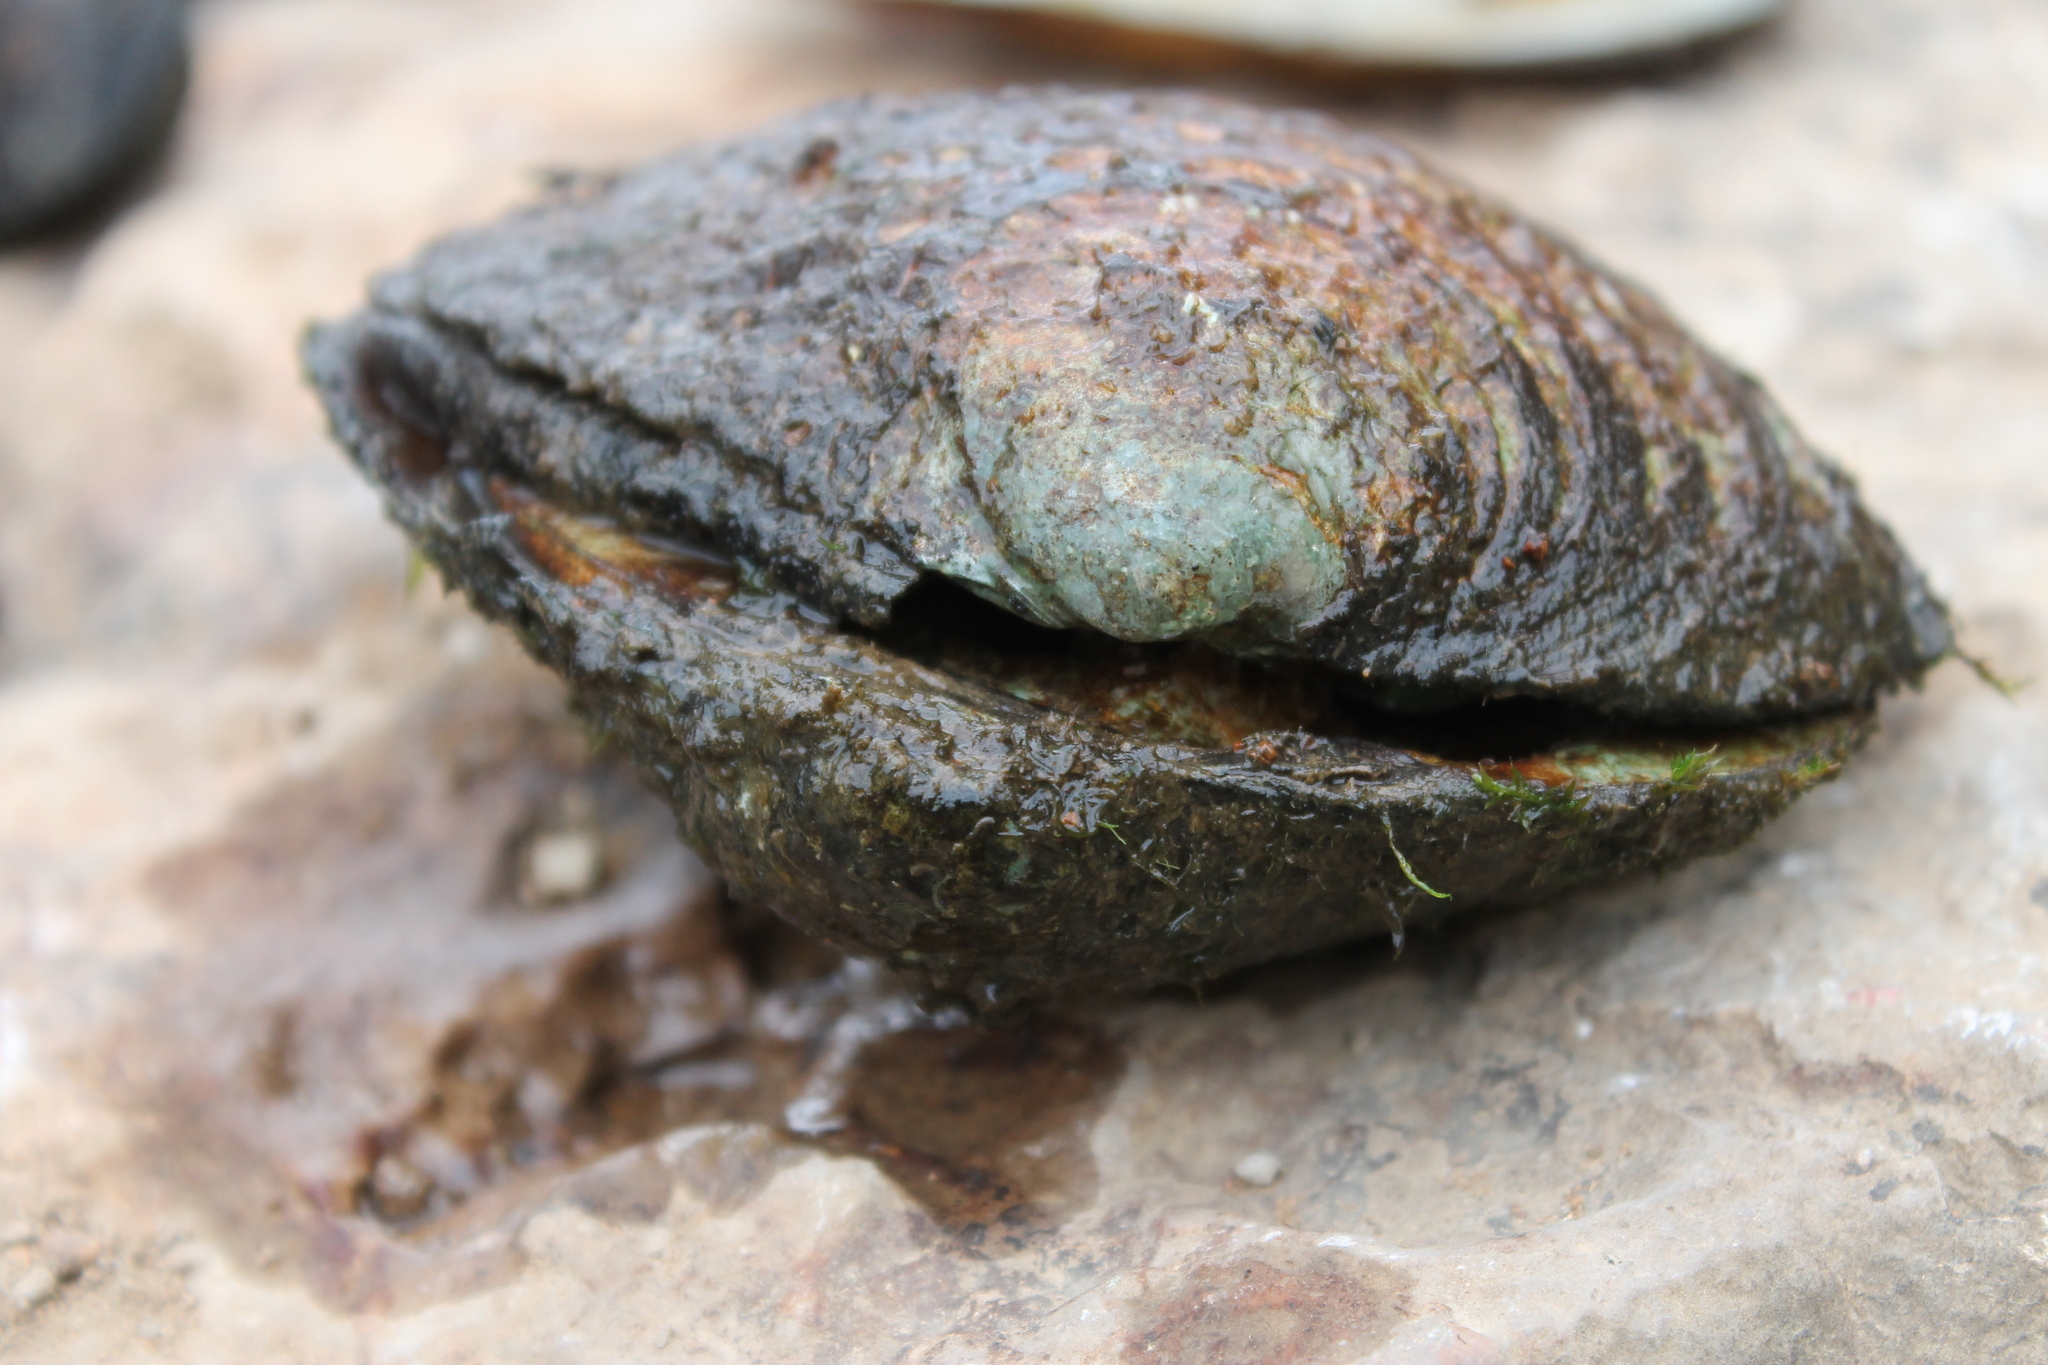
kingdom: Animalia
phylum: Mollusca
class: Bivalvia
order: Unionida
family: Unionidae
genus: Cyclonaias
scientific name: Cyclonaias tuberculata
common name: Purple wartyback
